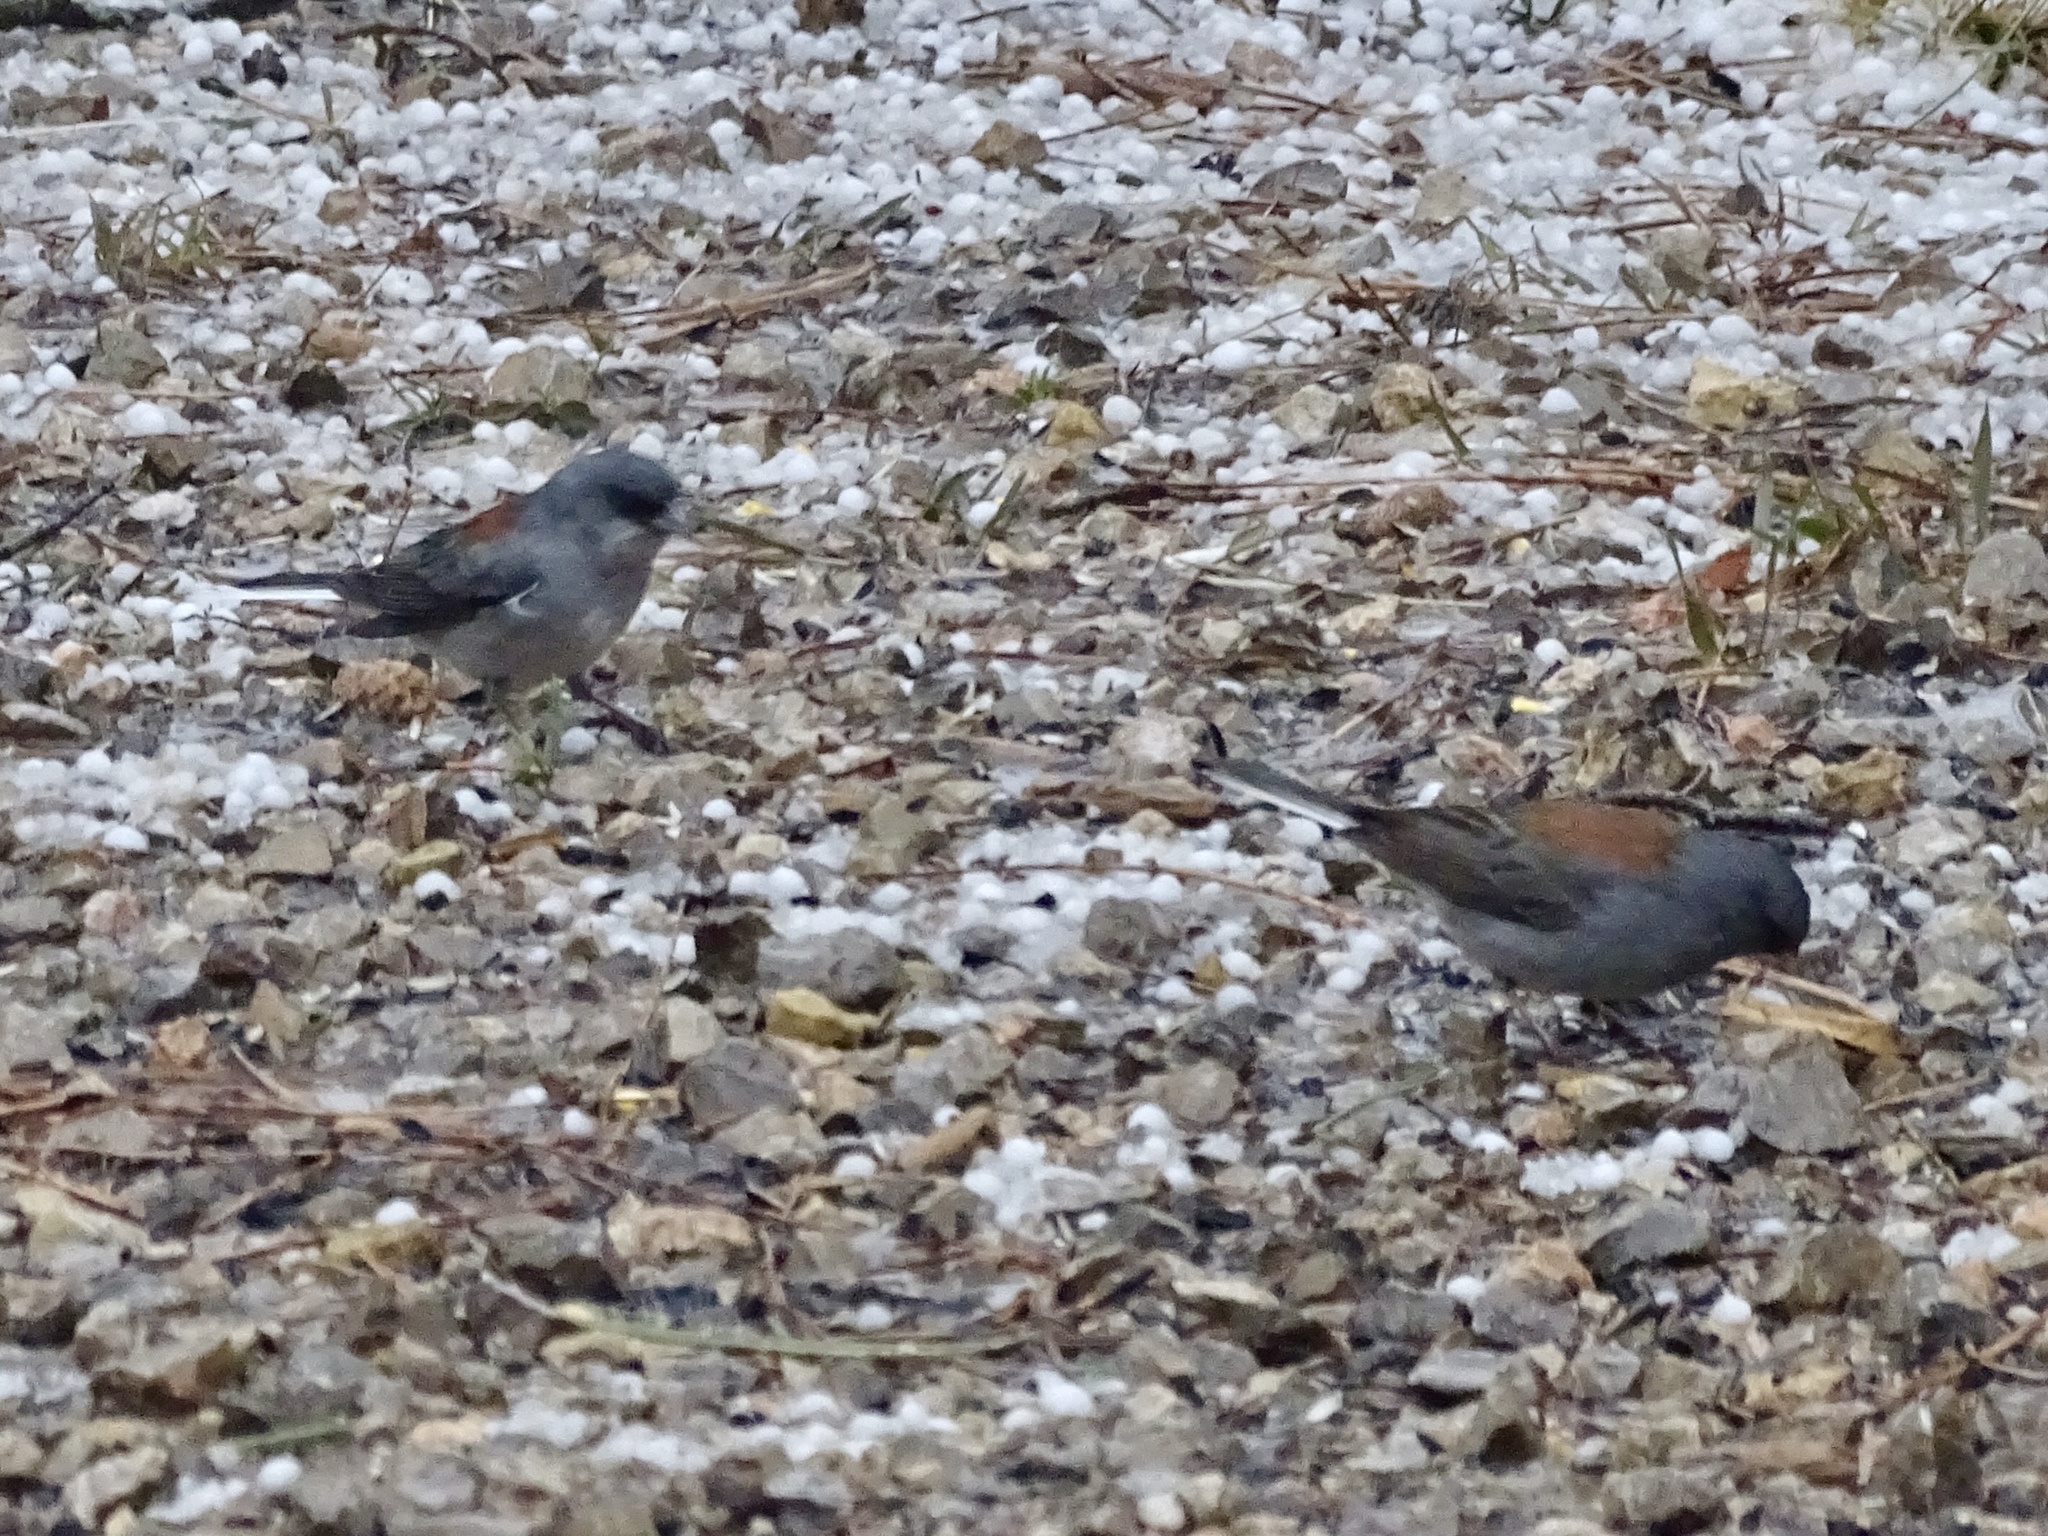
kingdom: Animalia
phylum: Chordata
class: Aves
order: Passeriformes
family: Passerellidae
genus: Junco
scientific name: Junco hyemalis
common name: Dark-eyed junco
